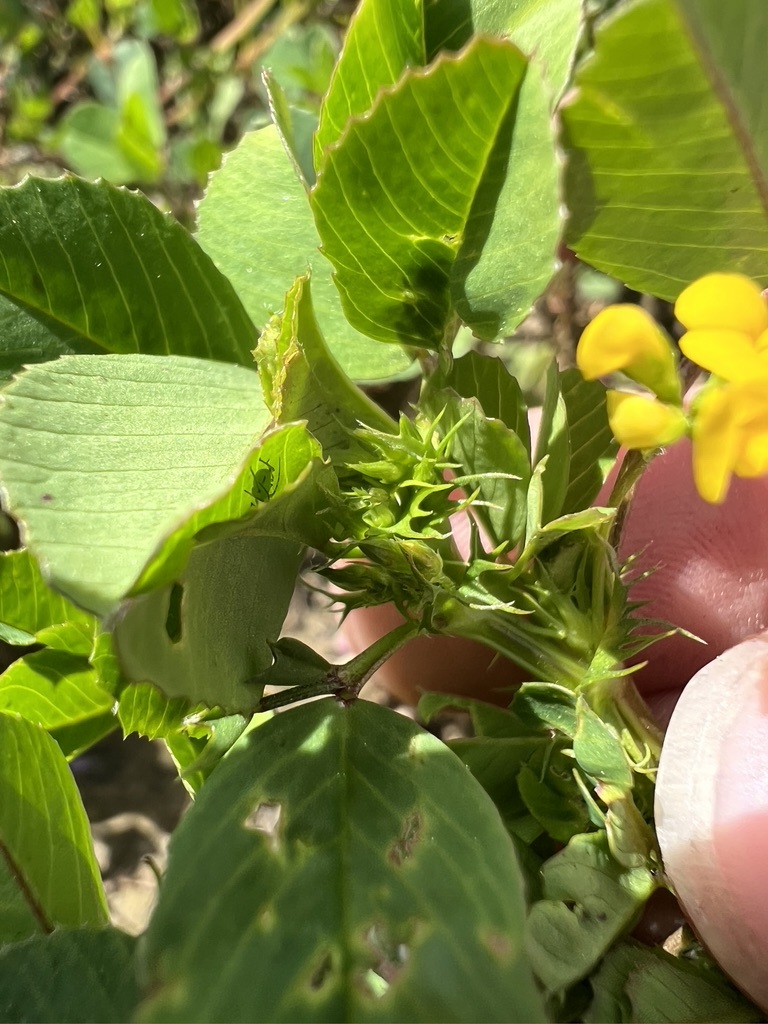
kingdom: Plantae
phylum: Tracheophyta
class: Magnoliopsida
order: Fabales
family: Fabaceae
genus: Medicago
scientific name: Medicago polymorpha
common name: Burclover
